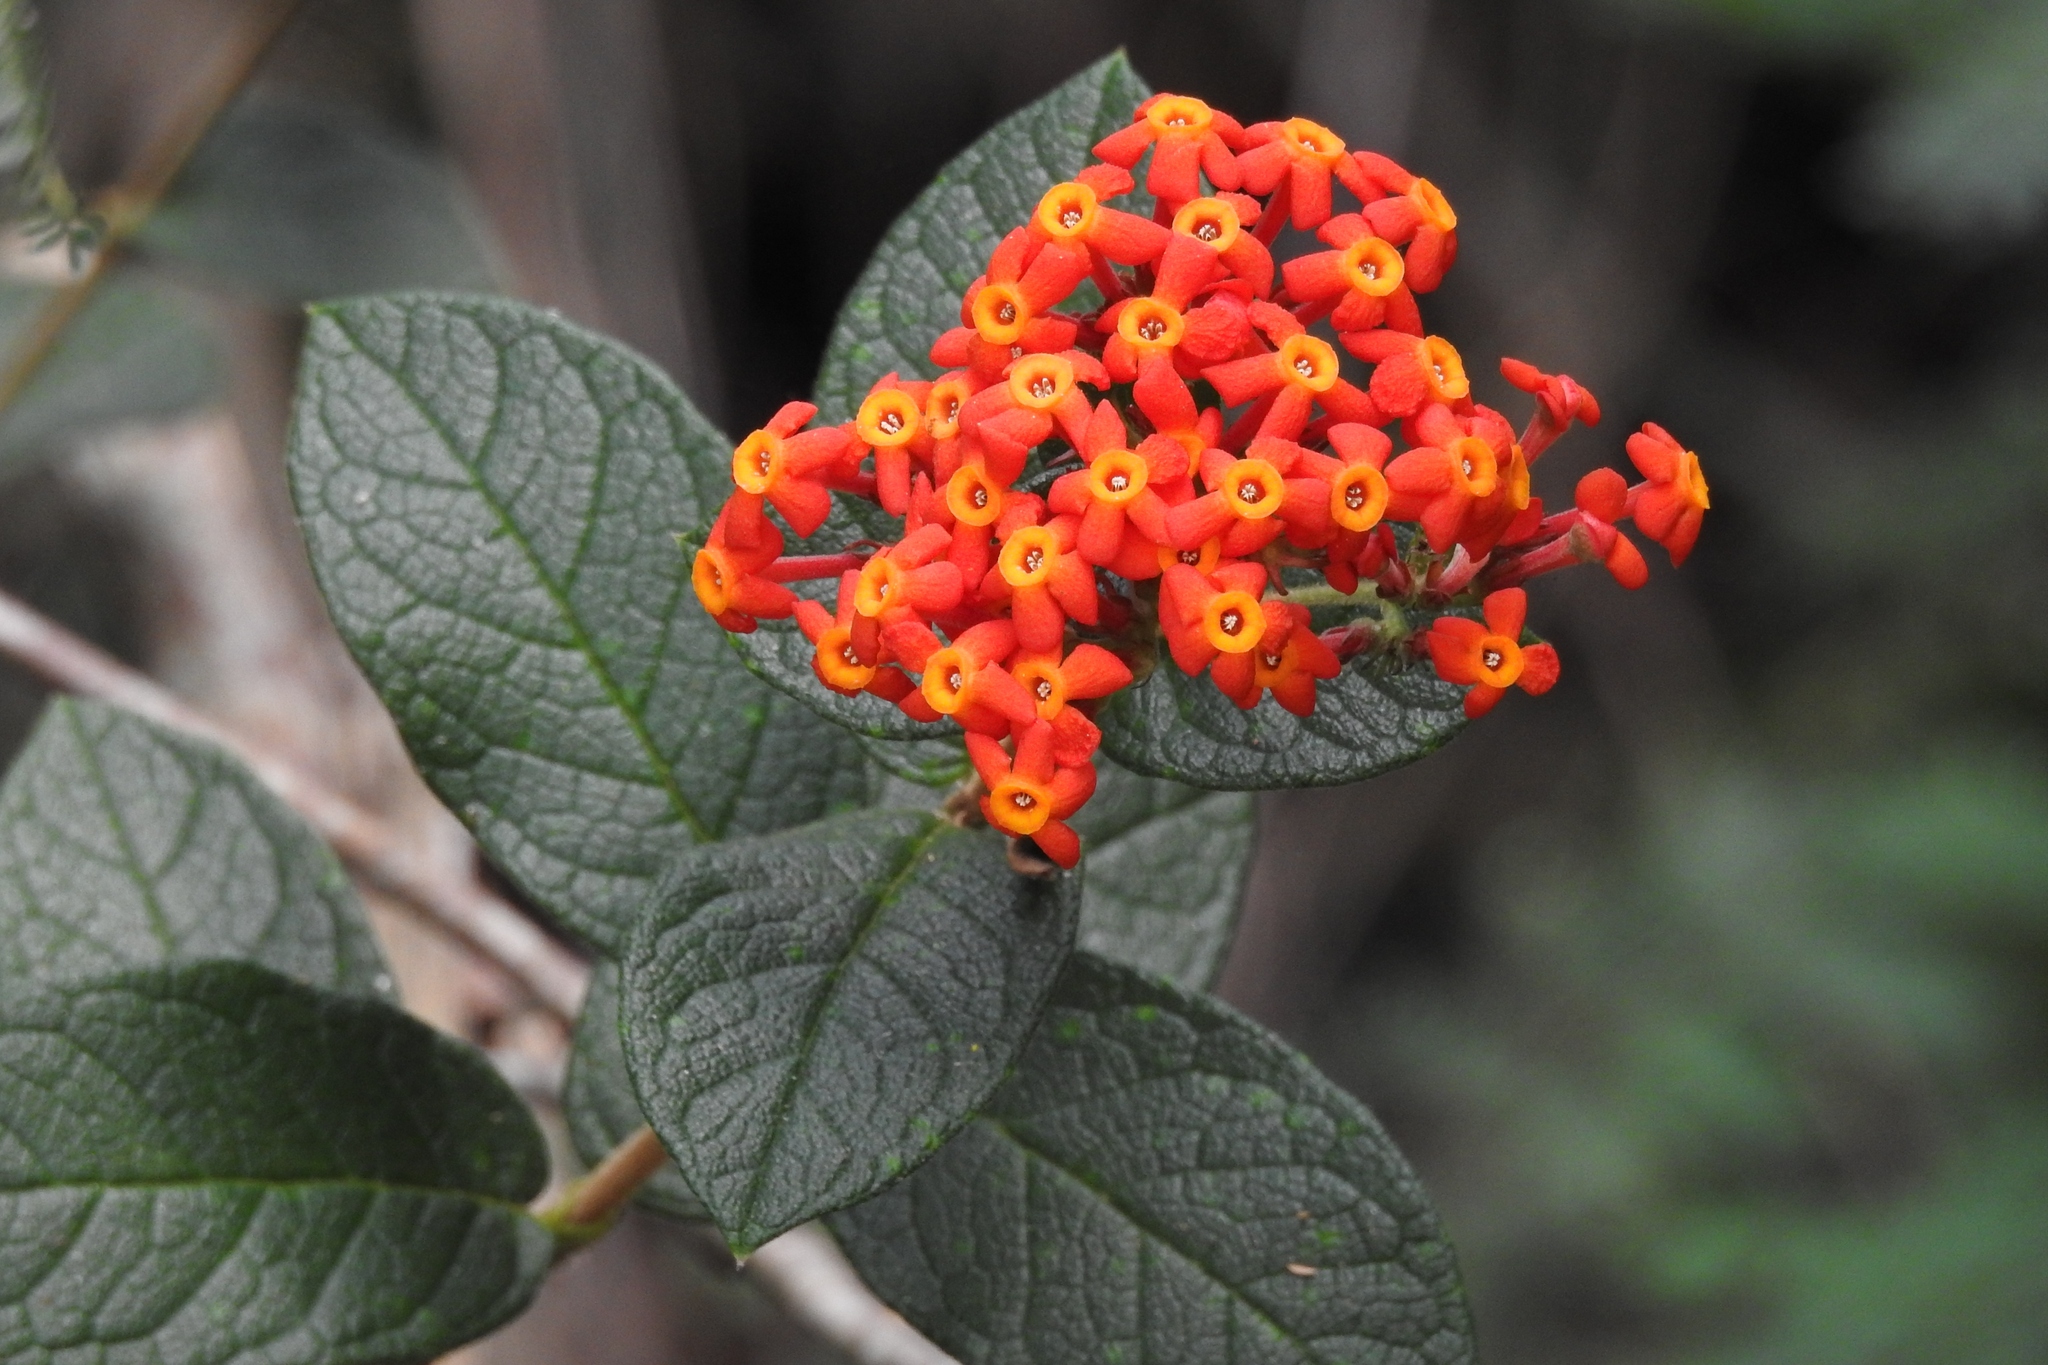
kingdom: Plantae
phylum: Tracheophyta
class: Magnoliopsida
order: Gentianales
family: Rubiaceae
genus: Rondeletia
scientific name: Rondeletia odorata
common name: Panama-rose
